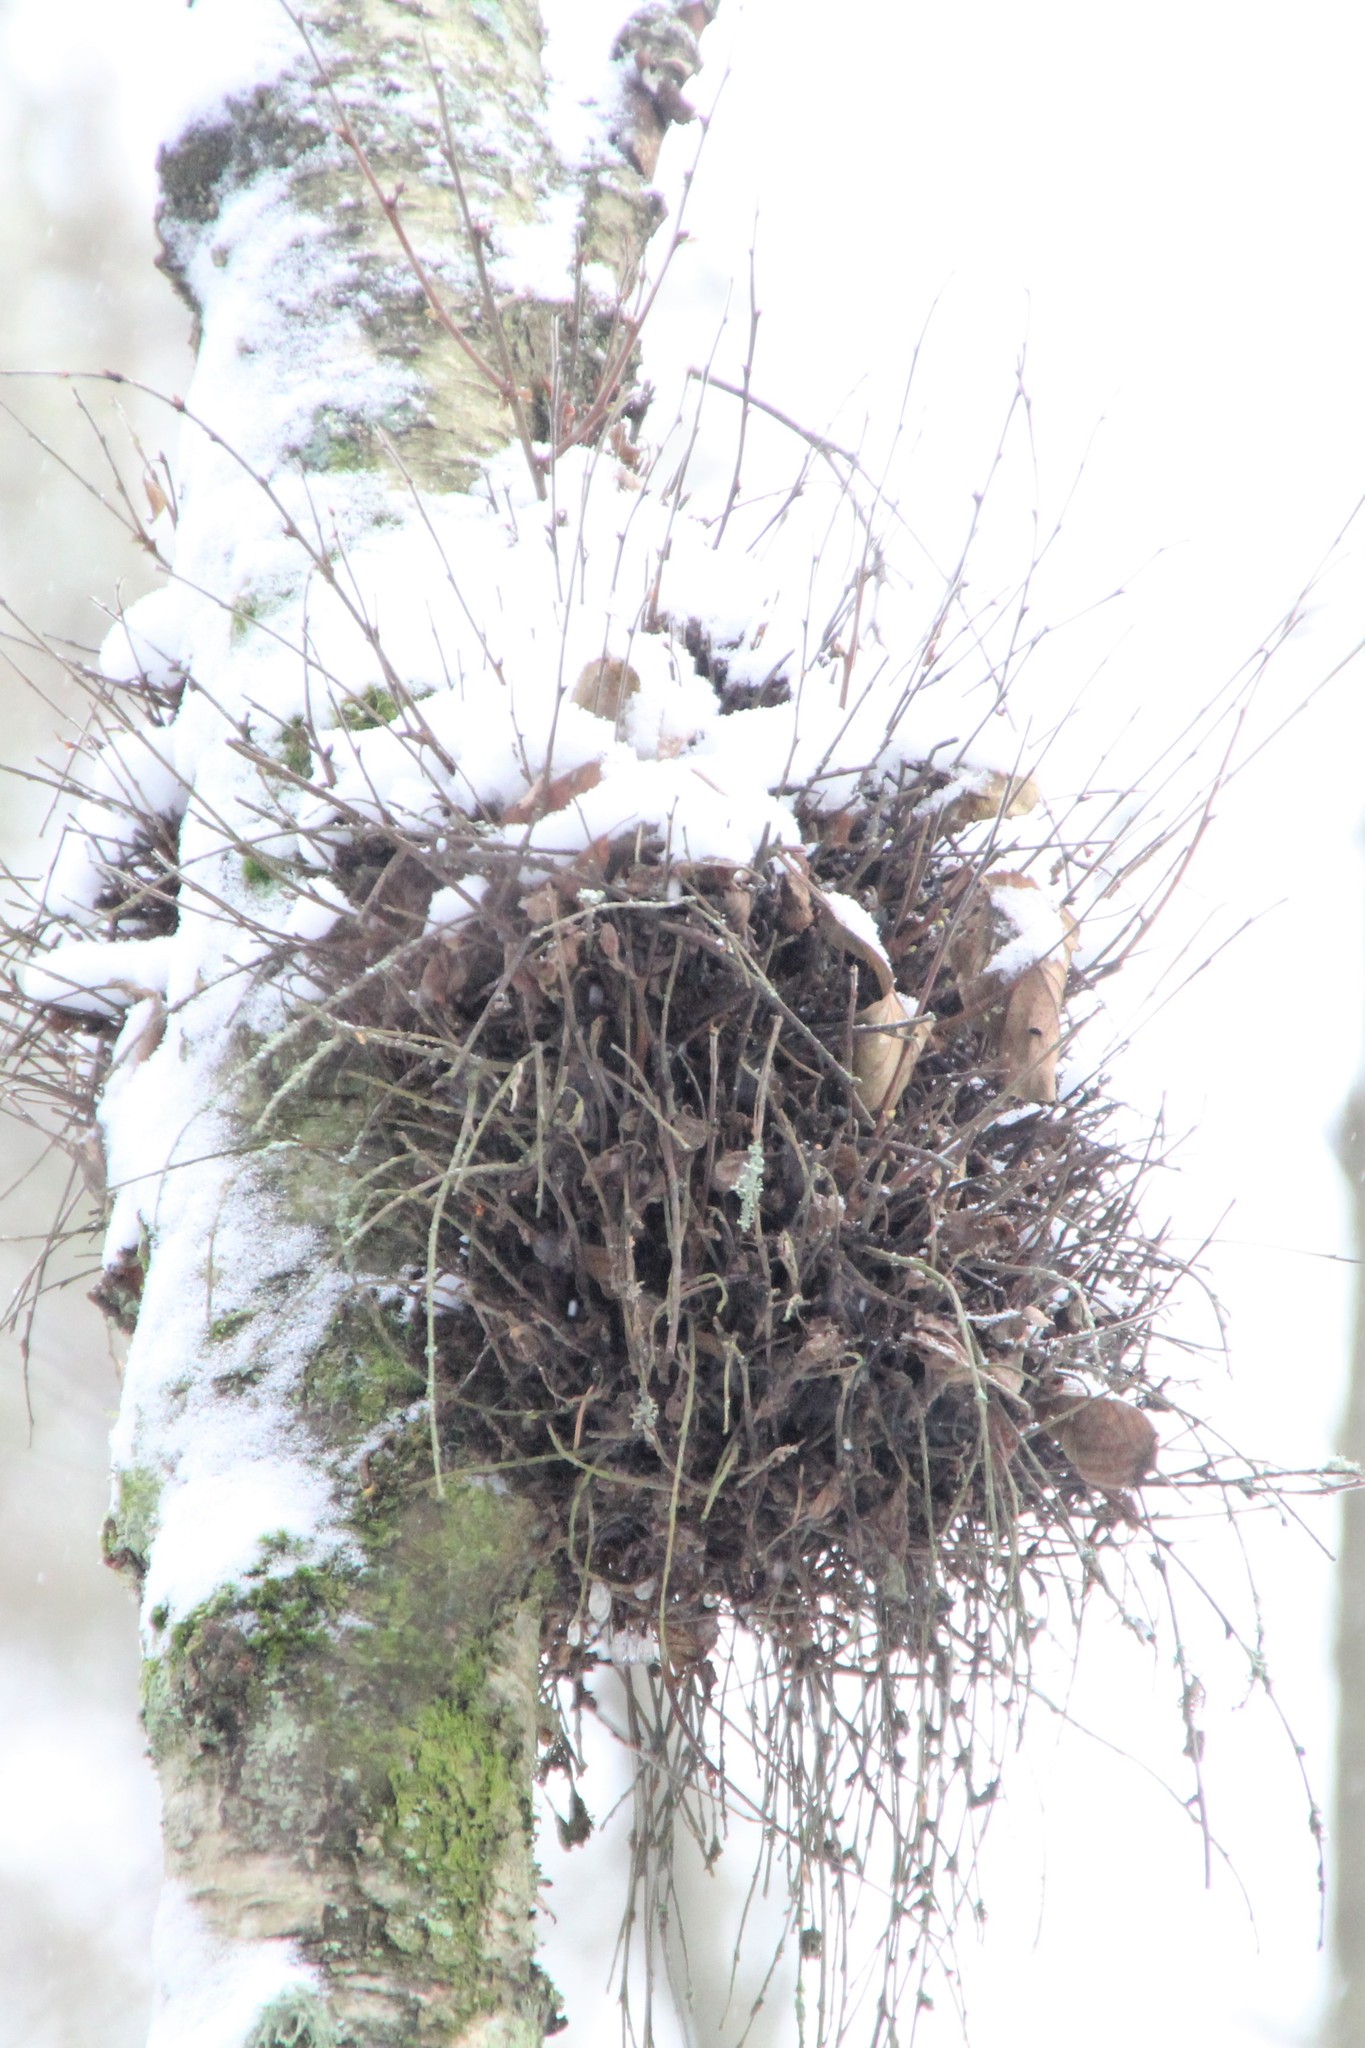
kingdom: Fungi
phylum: Ascomycota
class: Taphrinomycetes
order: Taphrinales
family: Taphrinaceae
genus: Taphrina
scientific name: Taphrina betulina
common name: Birch besom
